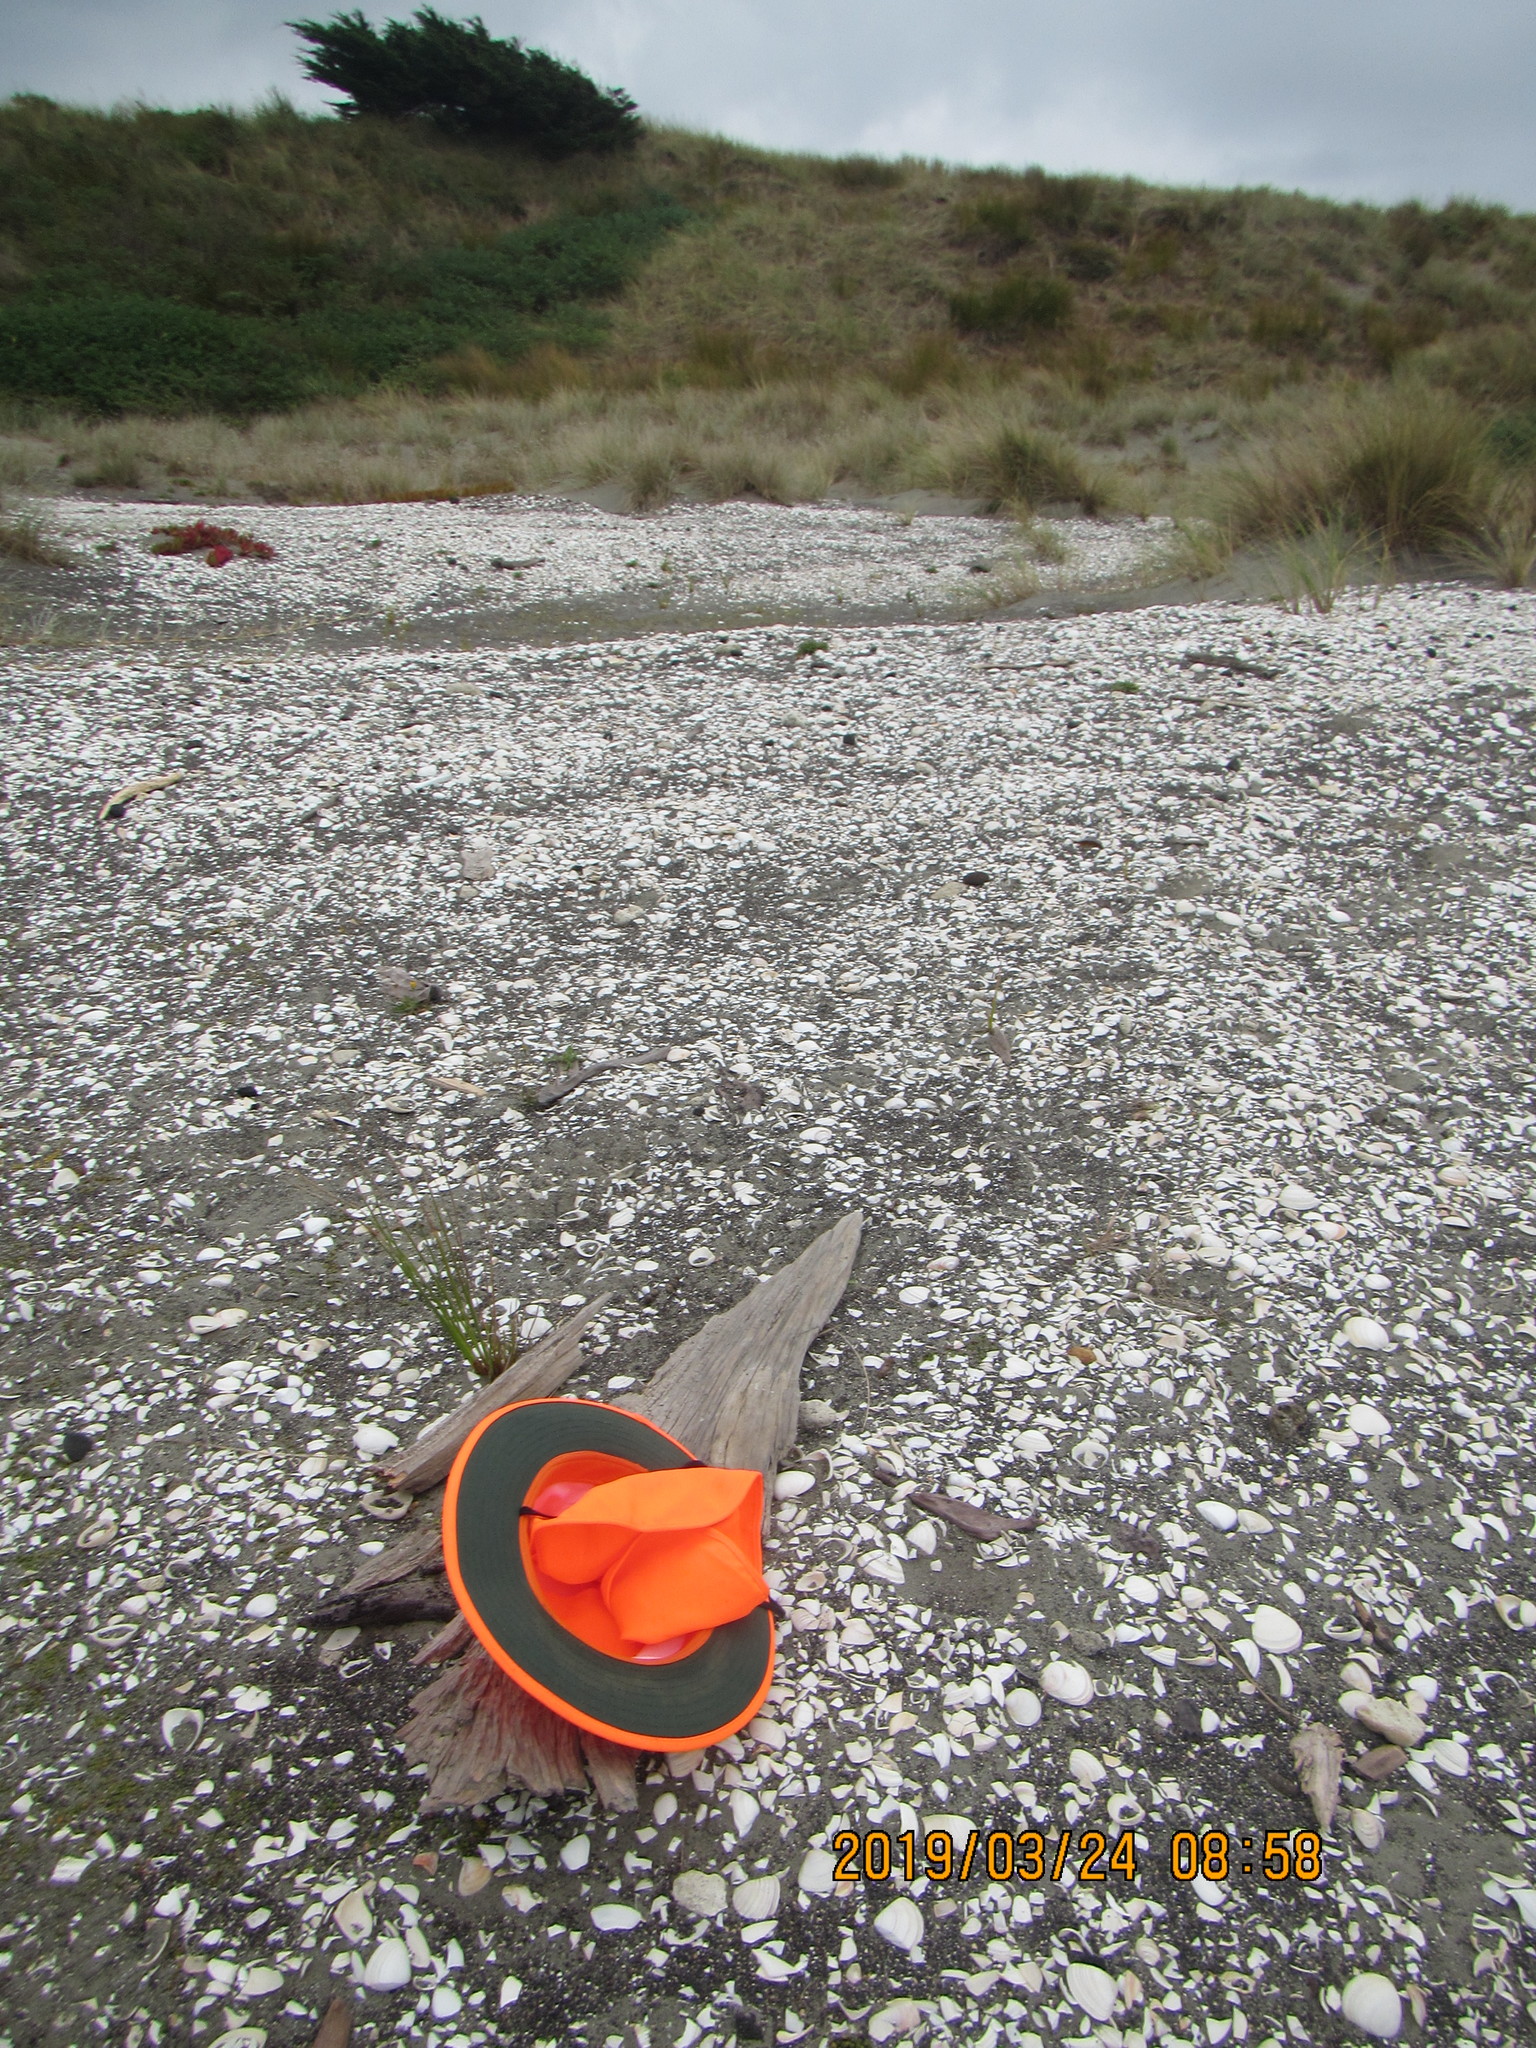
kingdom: Animalia
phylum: Arthropoda
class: Arachnida
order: Araneae
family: Theridiidae
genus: Steatoda
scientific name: Steatoda capensis
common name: Cobweb weaver
